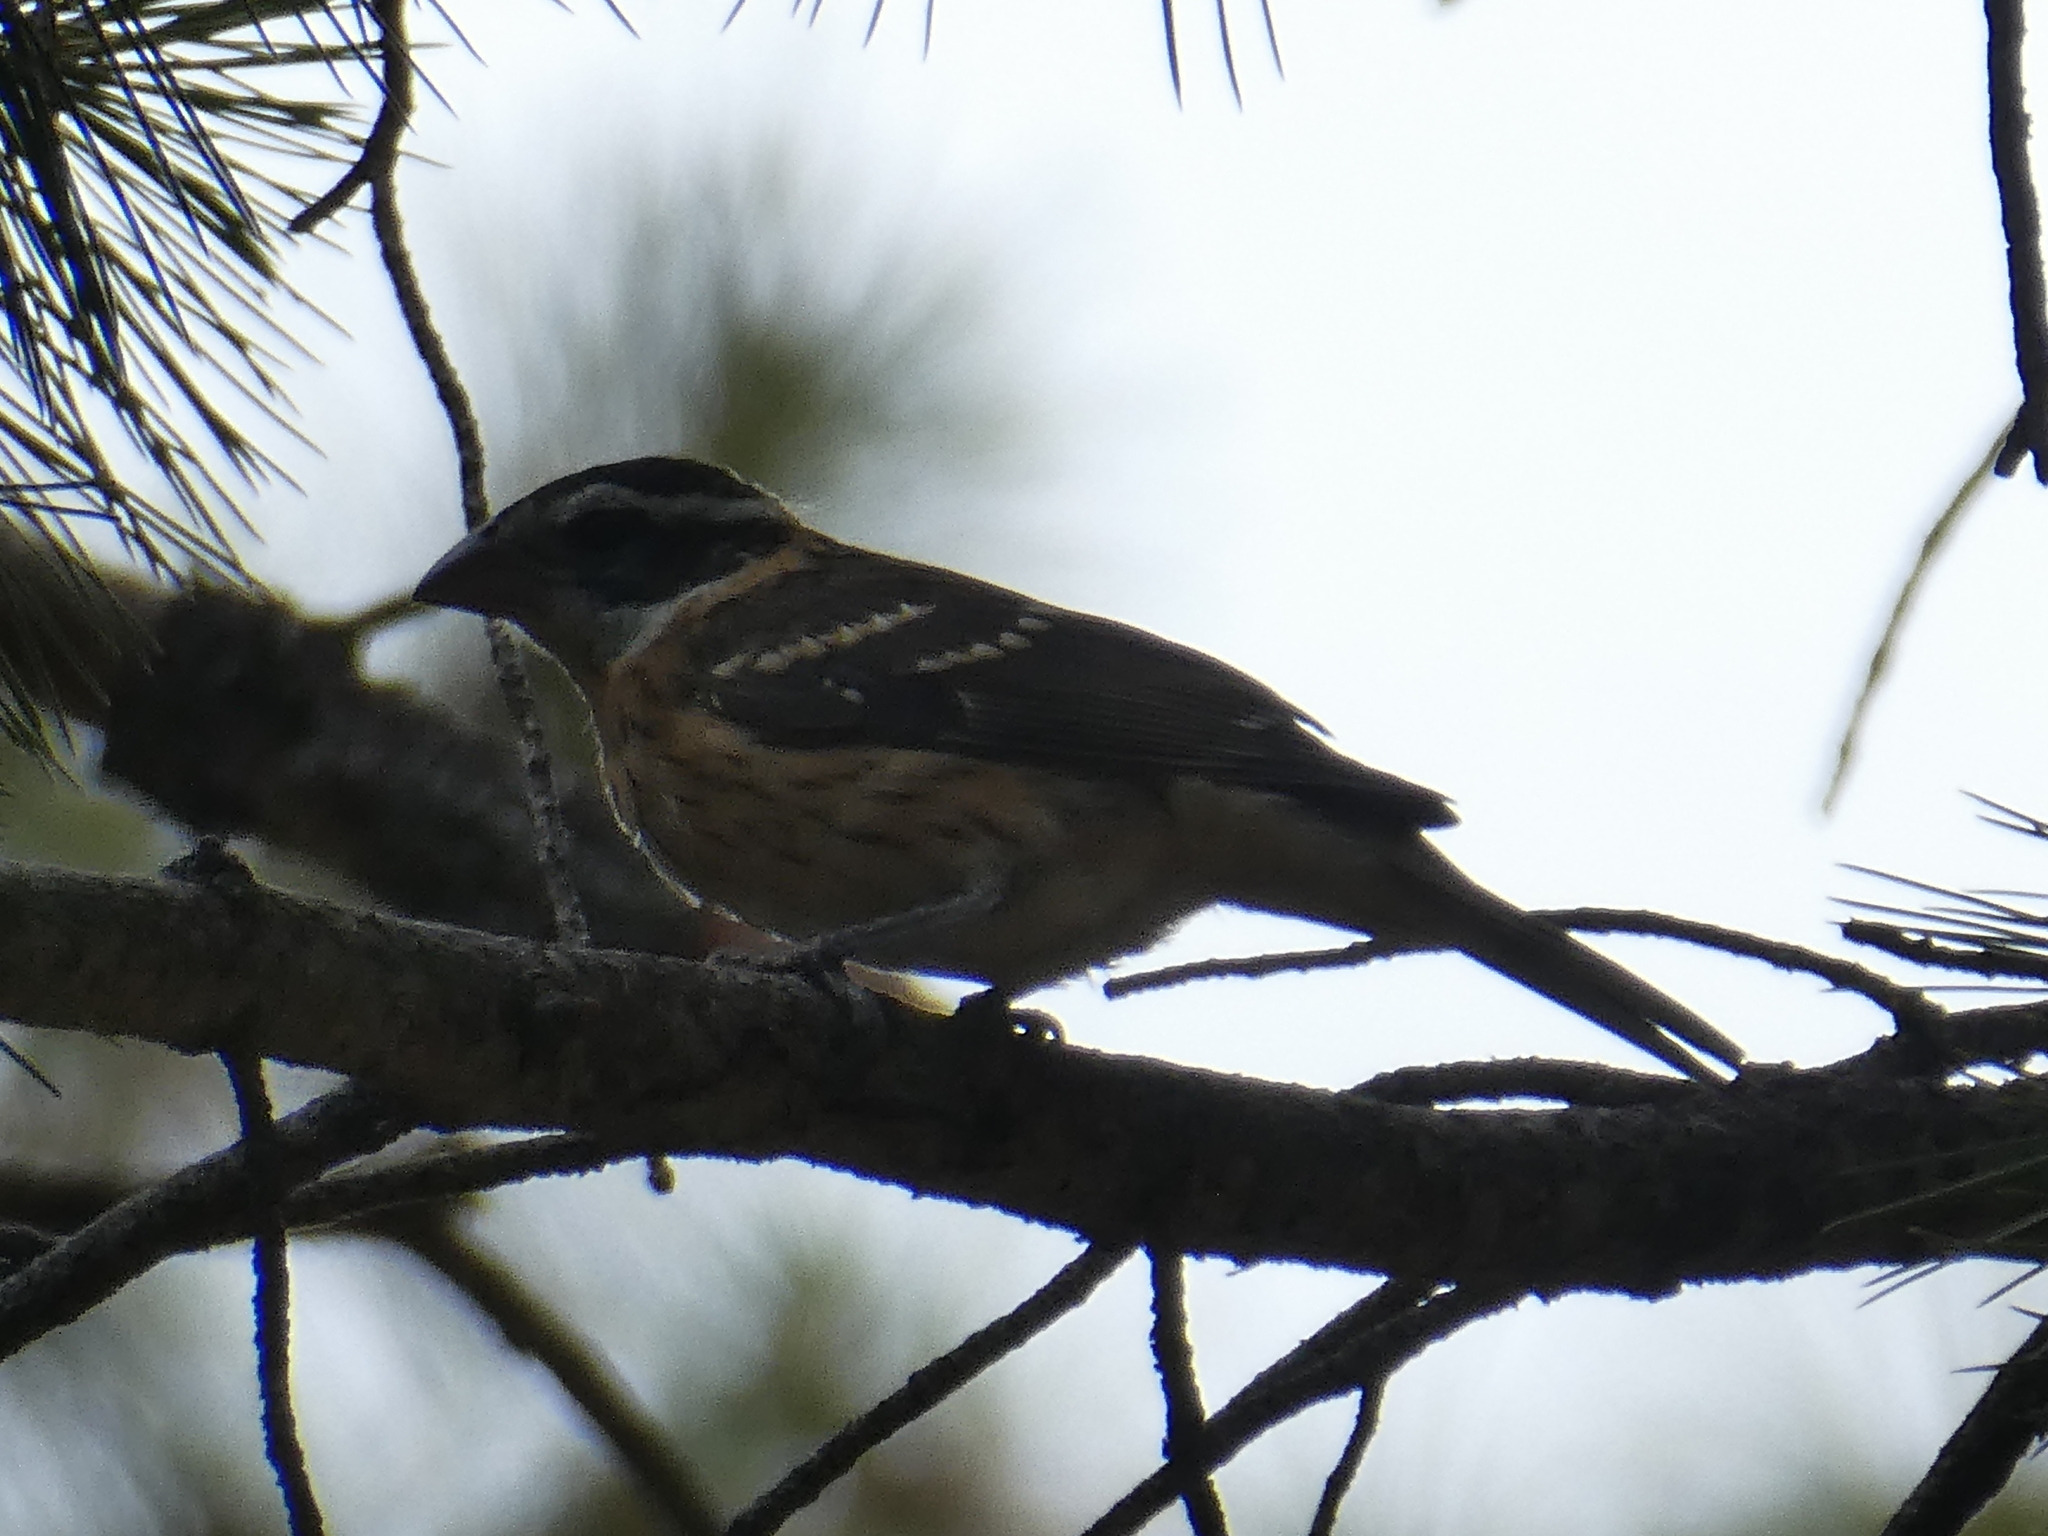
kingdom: Animalia
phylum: Chordata
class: Aves
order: Passeriformes
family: Cardinalidae
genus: Pheucticus
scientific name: Pheucticus melanocephalus
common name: Black-headed grosbeak
